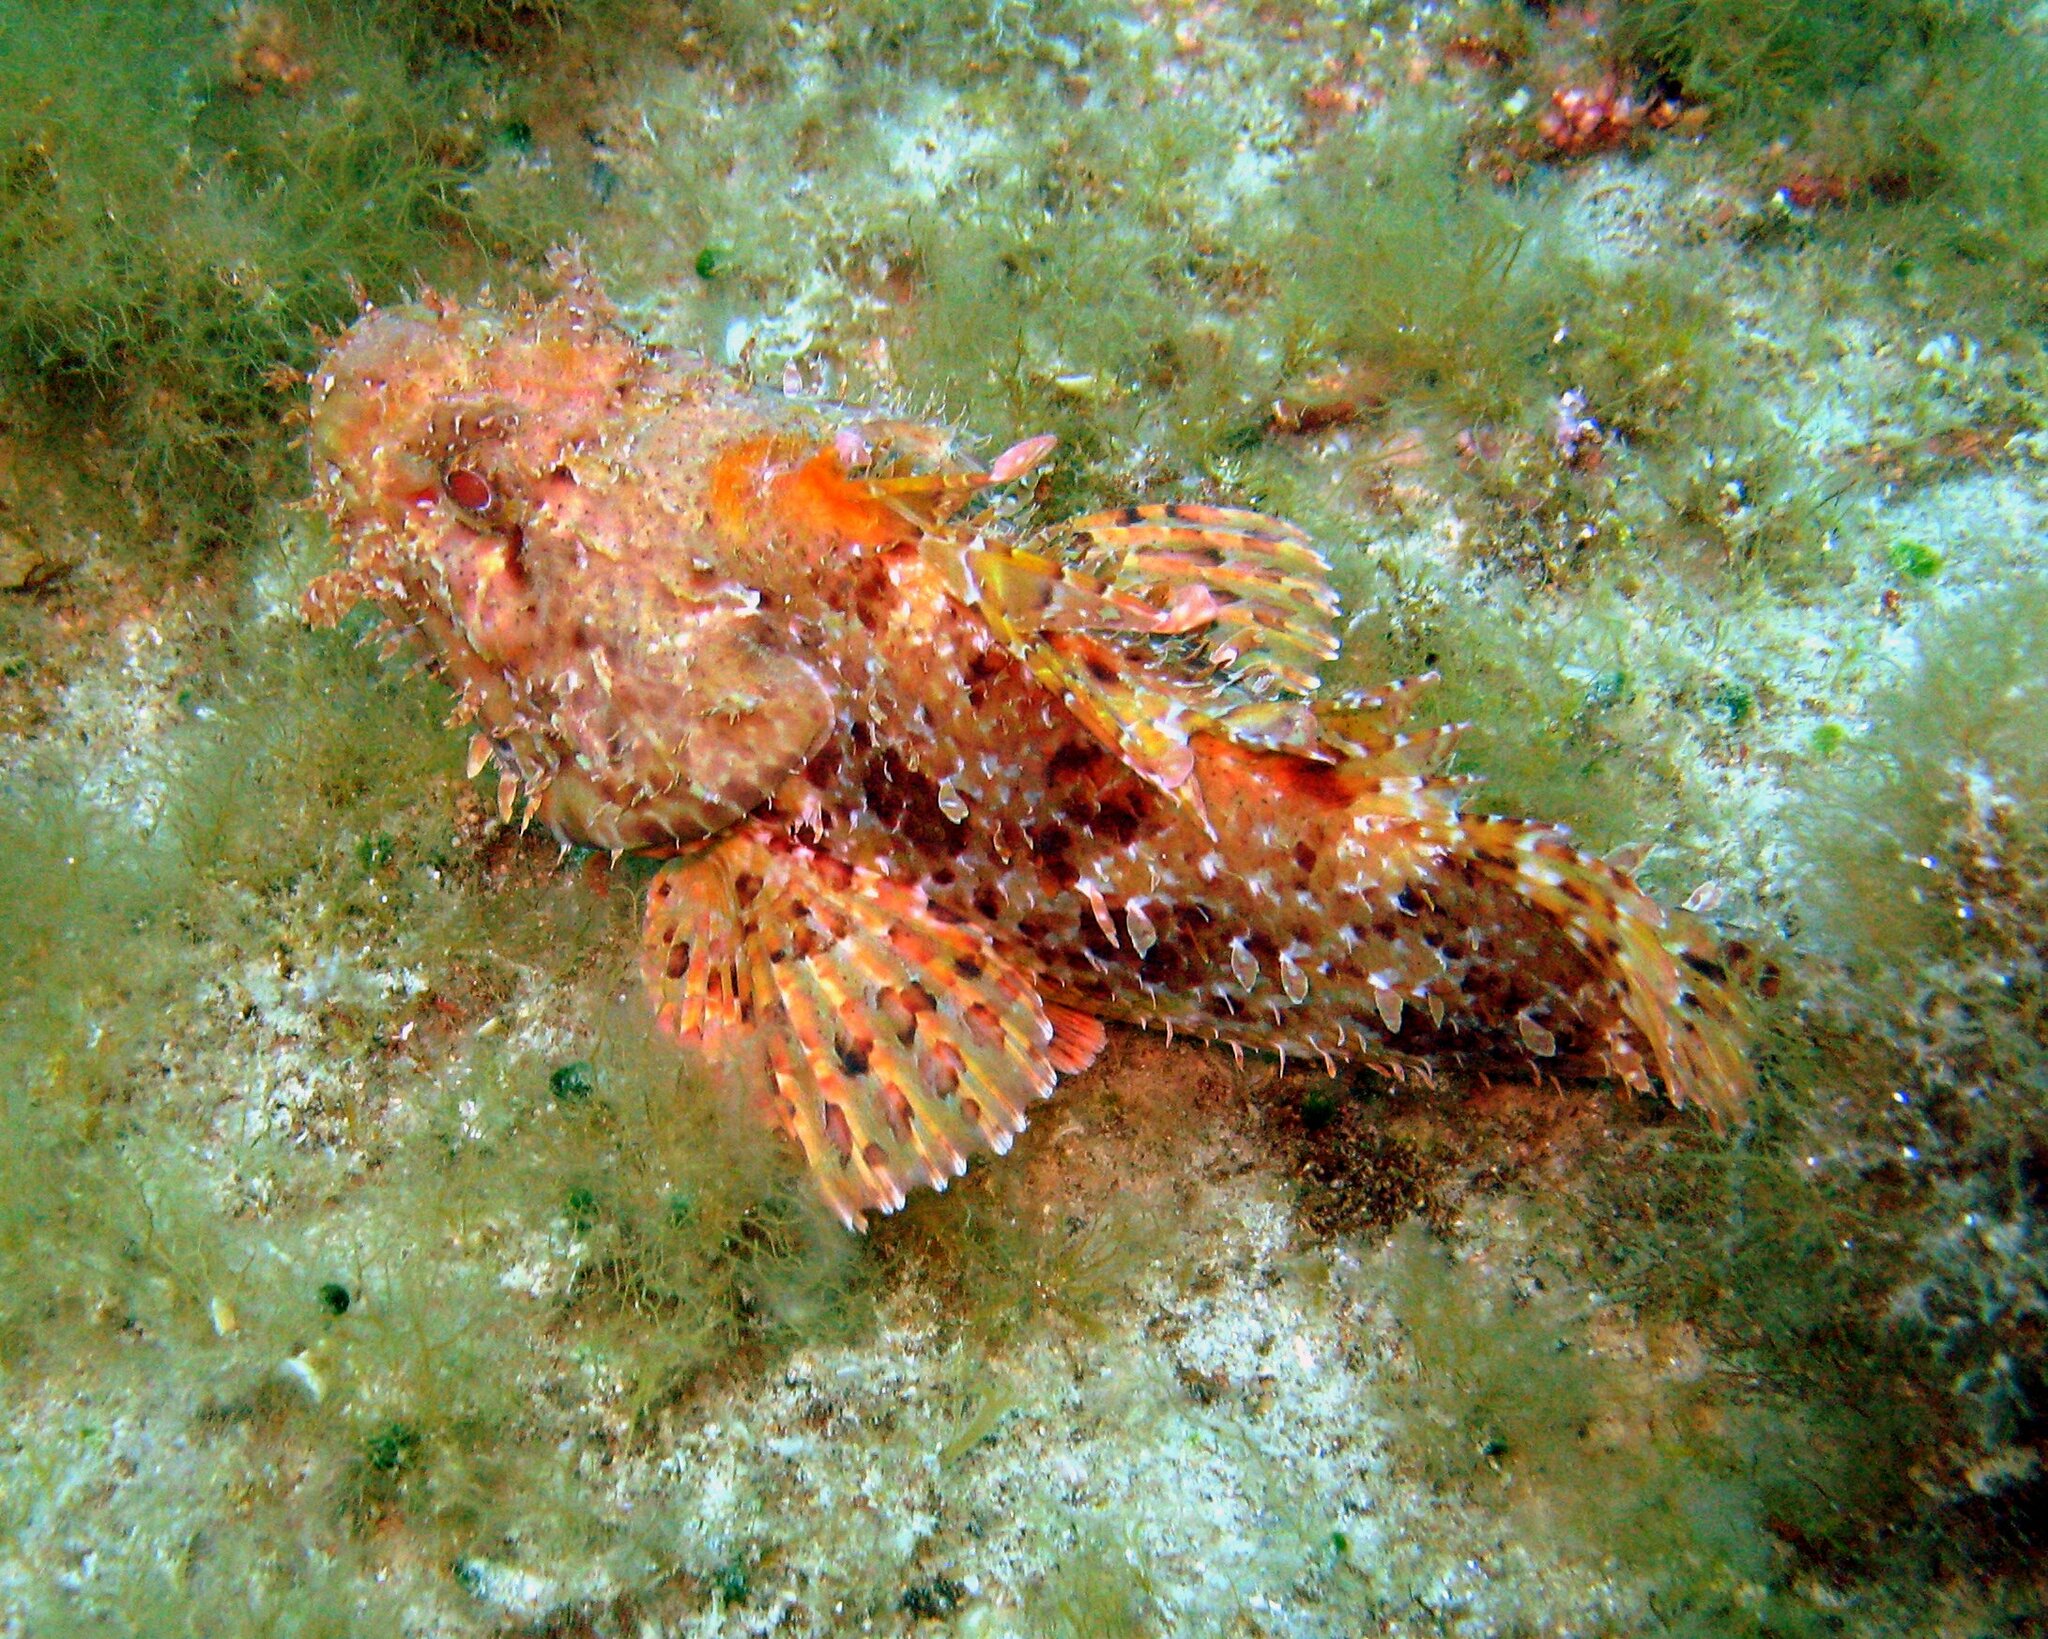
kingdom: Animalia
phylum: Chordata
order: Scorpaeniformes
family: Scorpaenidae
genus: Scorpaena
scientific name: Scorpaena scrofa
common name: Red scorpionfish
